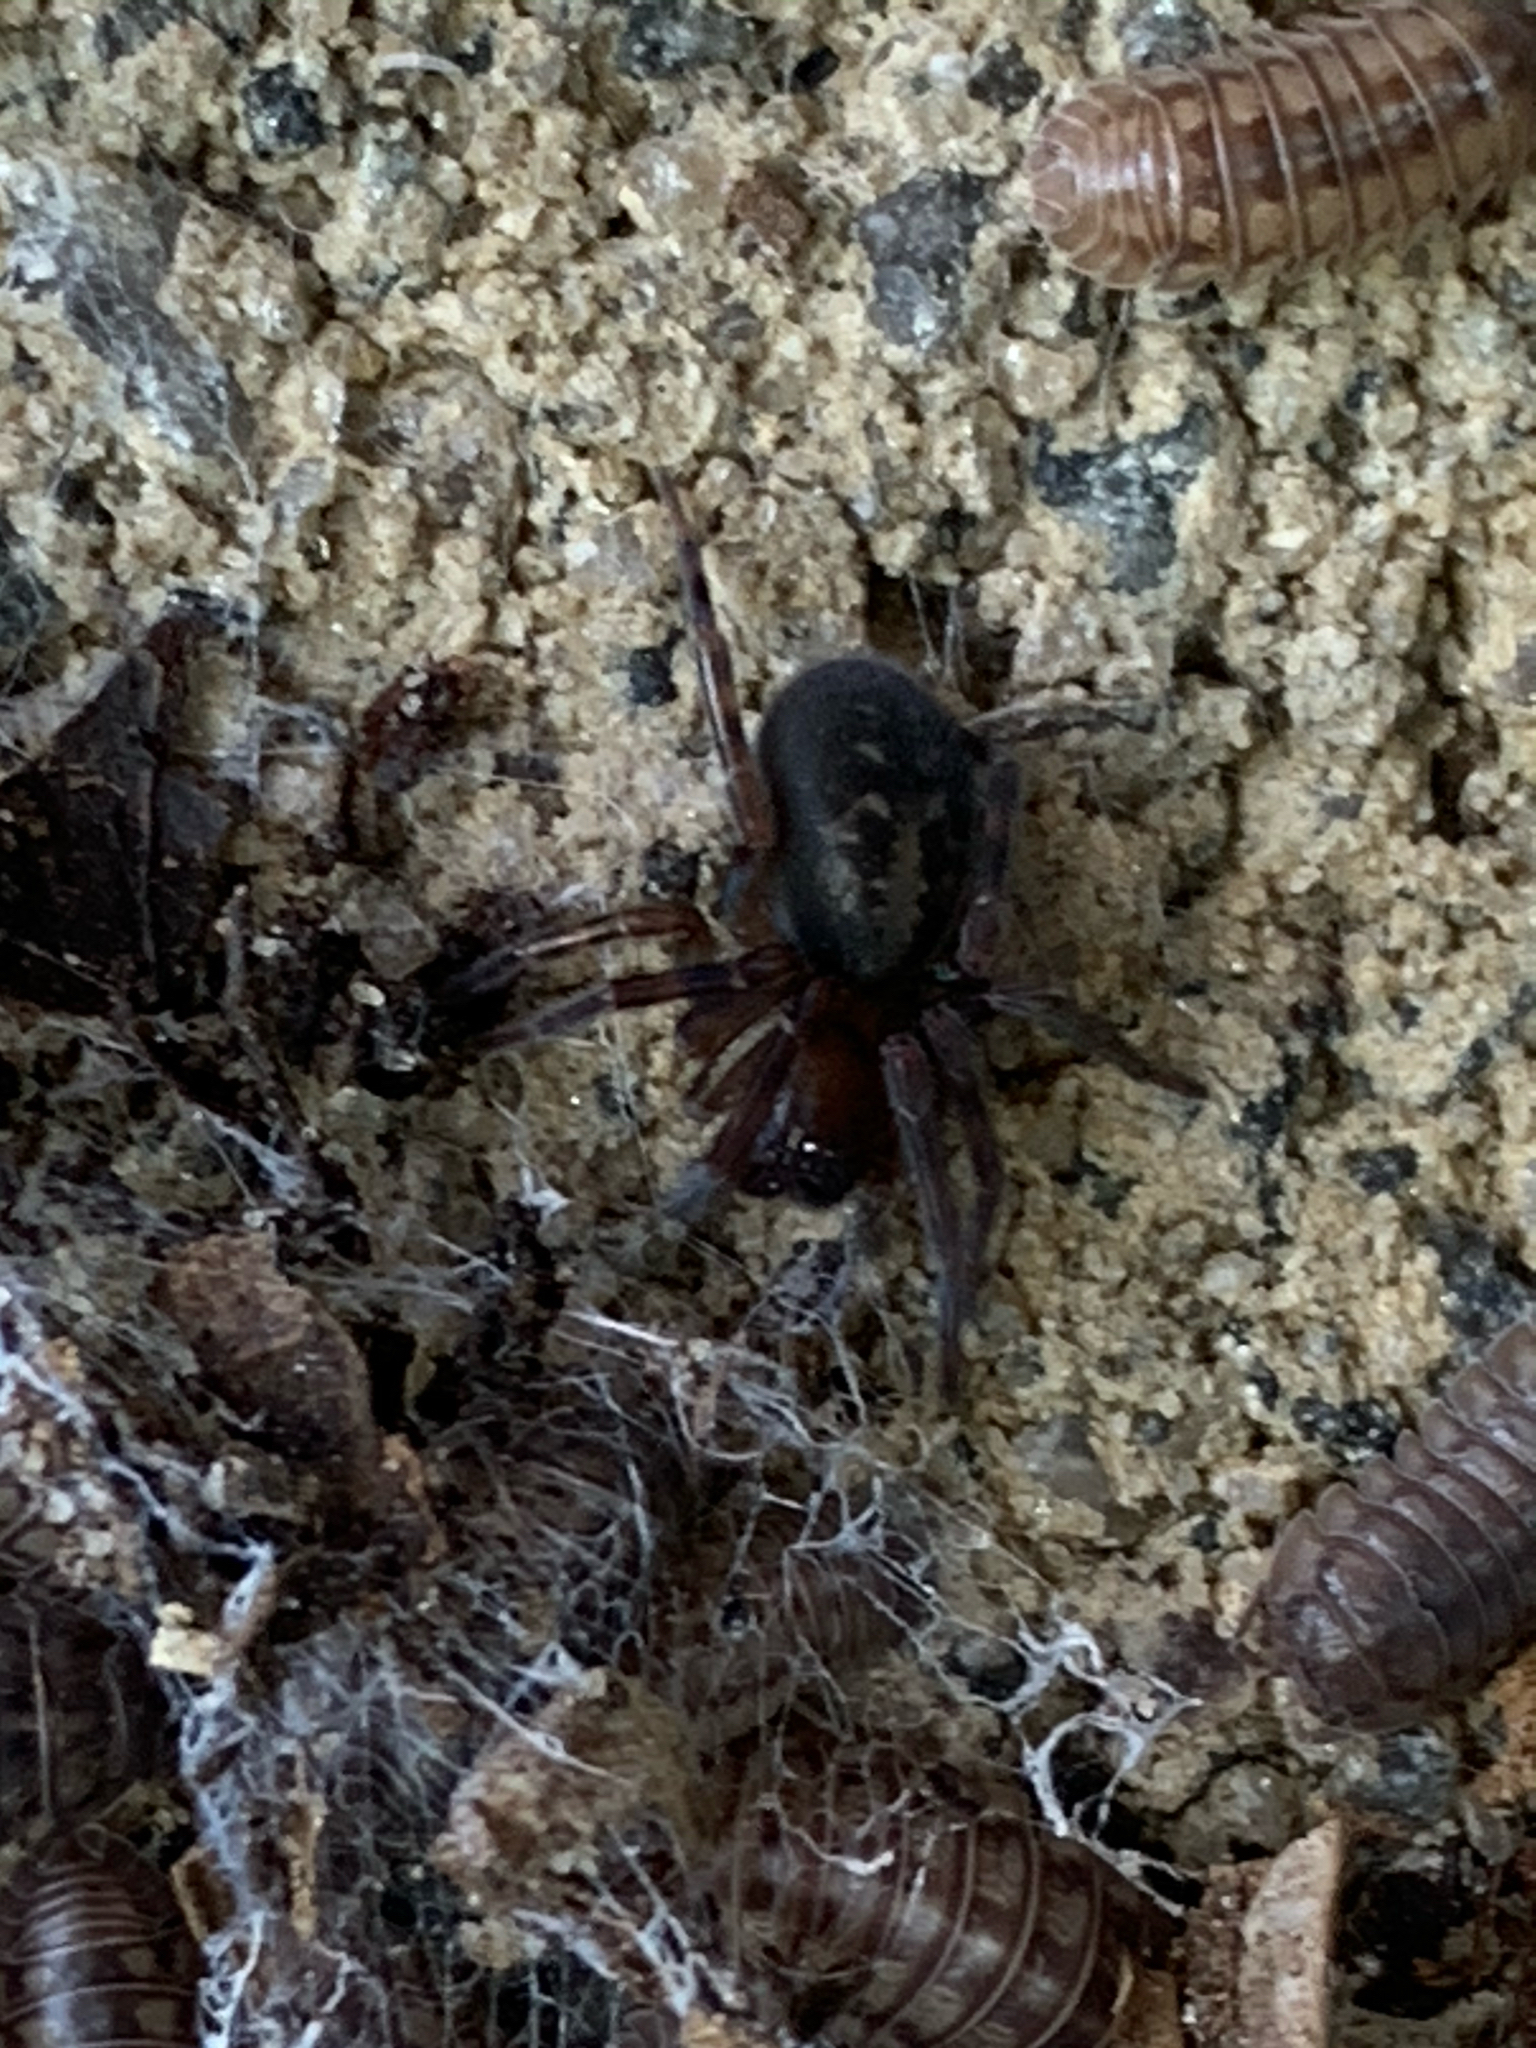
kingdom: Animalia
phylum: Arthropoda
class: Arachnida
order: Araneae
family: Amaurobiidae
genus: Amaurobius
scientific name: Amaurobius ferox
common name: Black laceweaver
